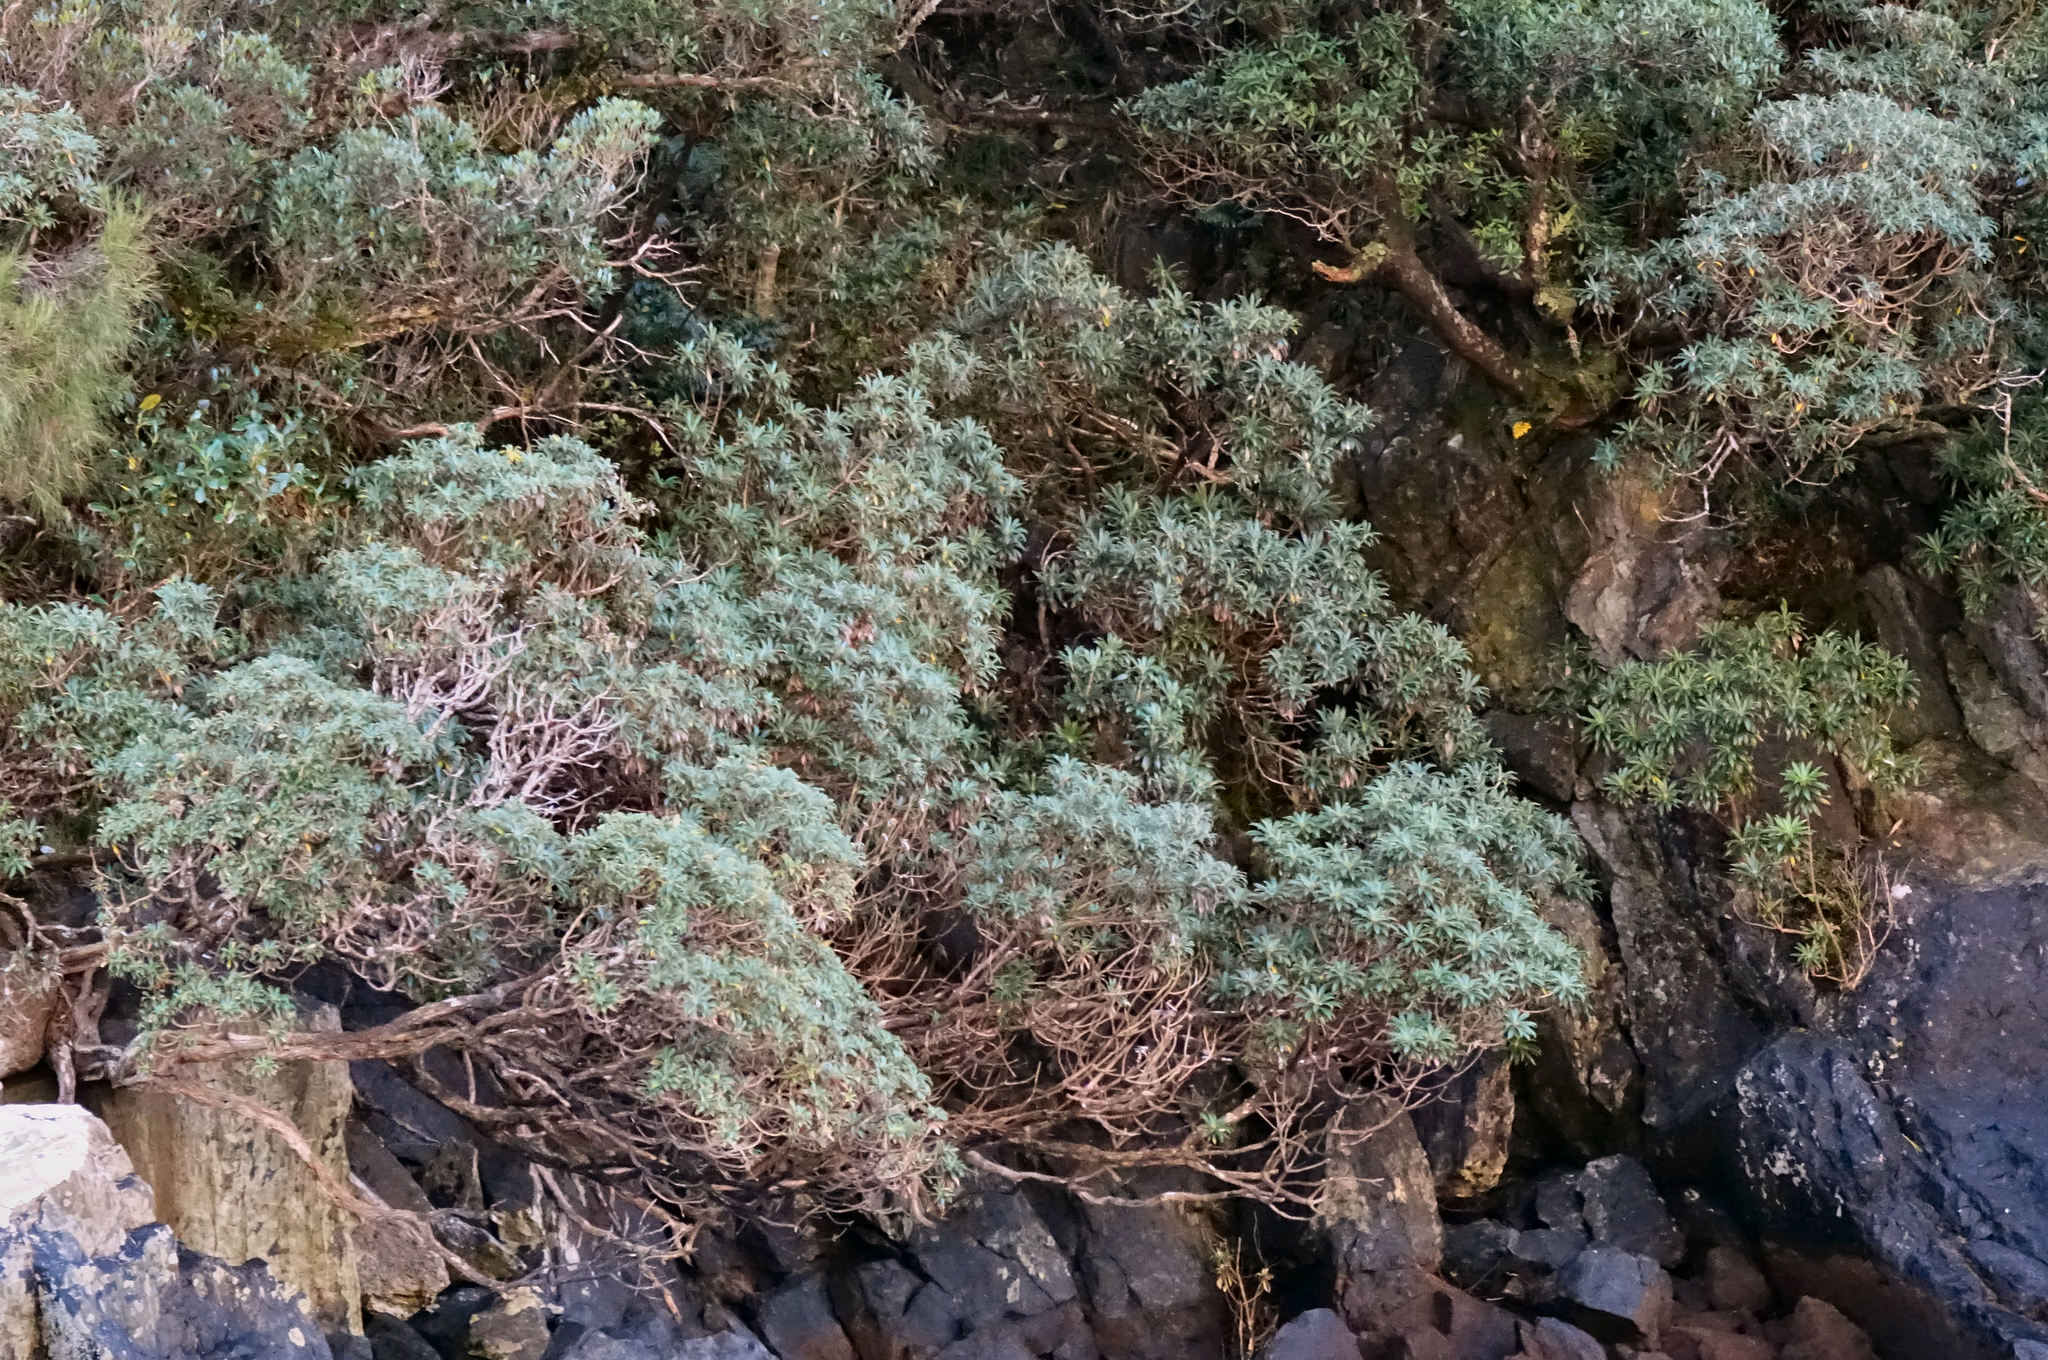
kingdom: Plantae
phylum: Tracheophyta
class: Magnoliopsida
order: Asterales
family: Asteraceae
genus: Macrolearia
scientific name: Macrolearia oporina
